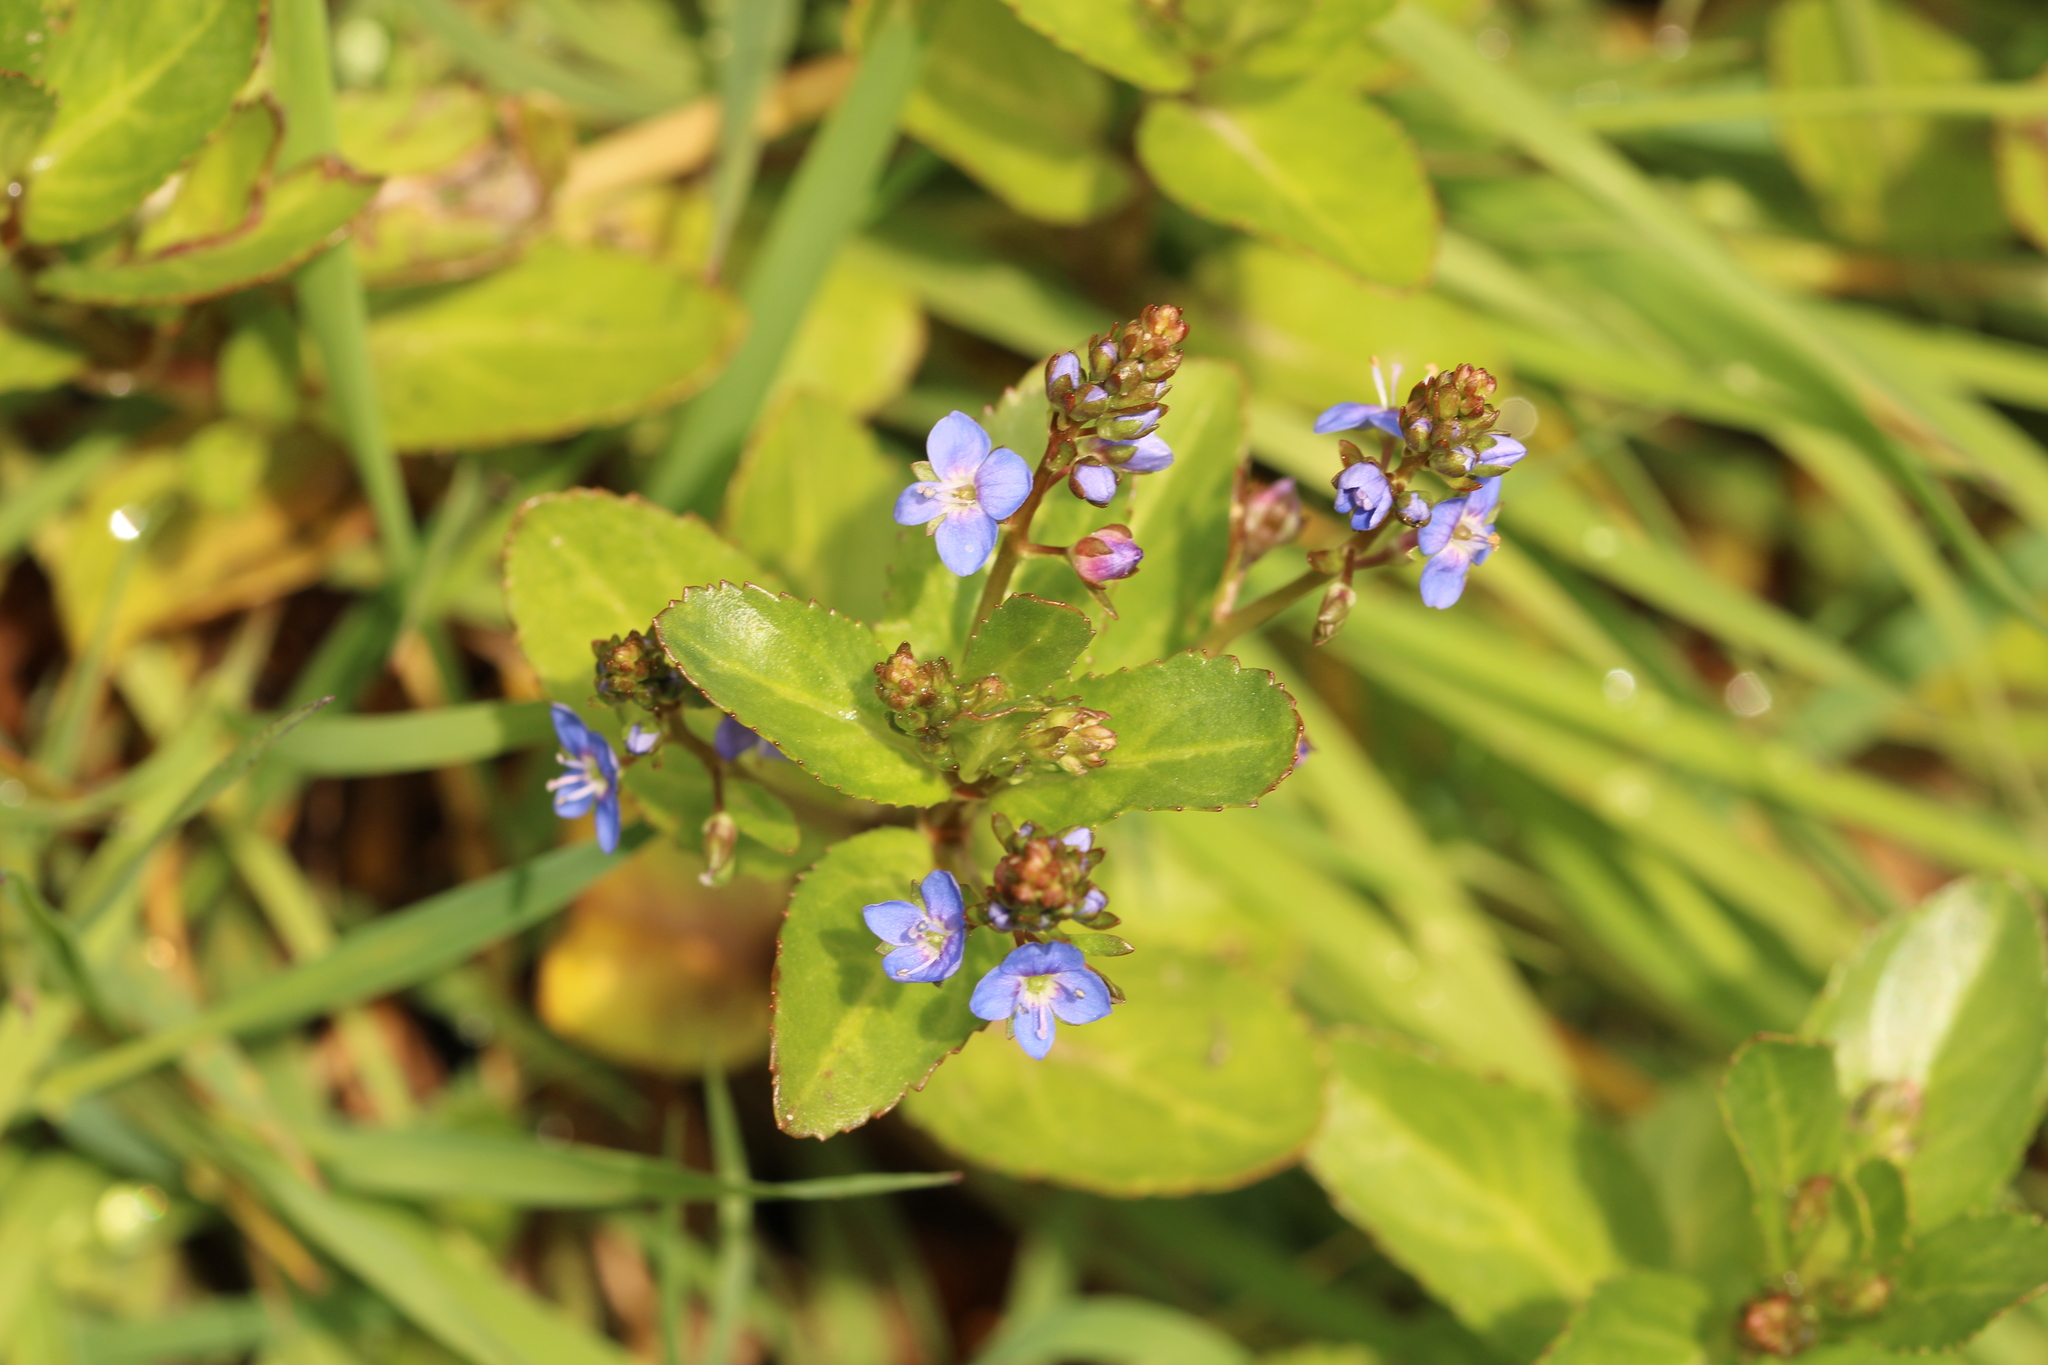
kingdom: Plantae
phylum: Tracheophyta
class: Magnoliopsida
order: Lamiales
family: Plantaginaceae
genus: Veronica
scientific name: Veronica beccabunga
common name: Brooklime
